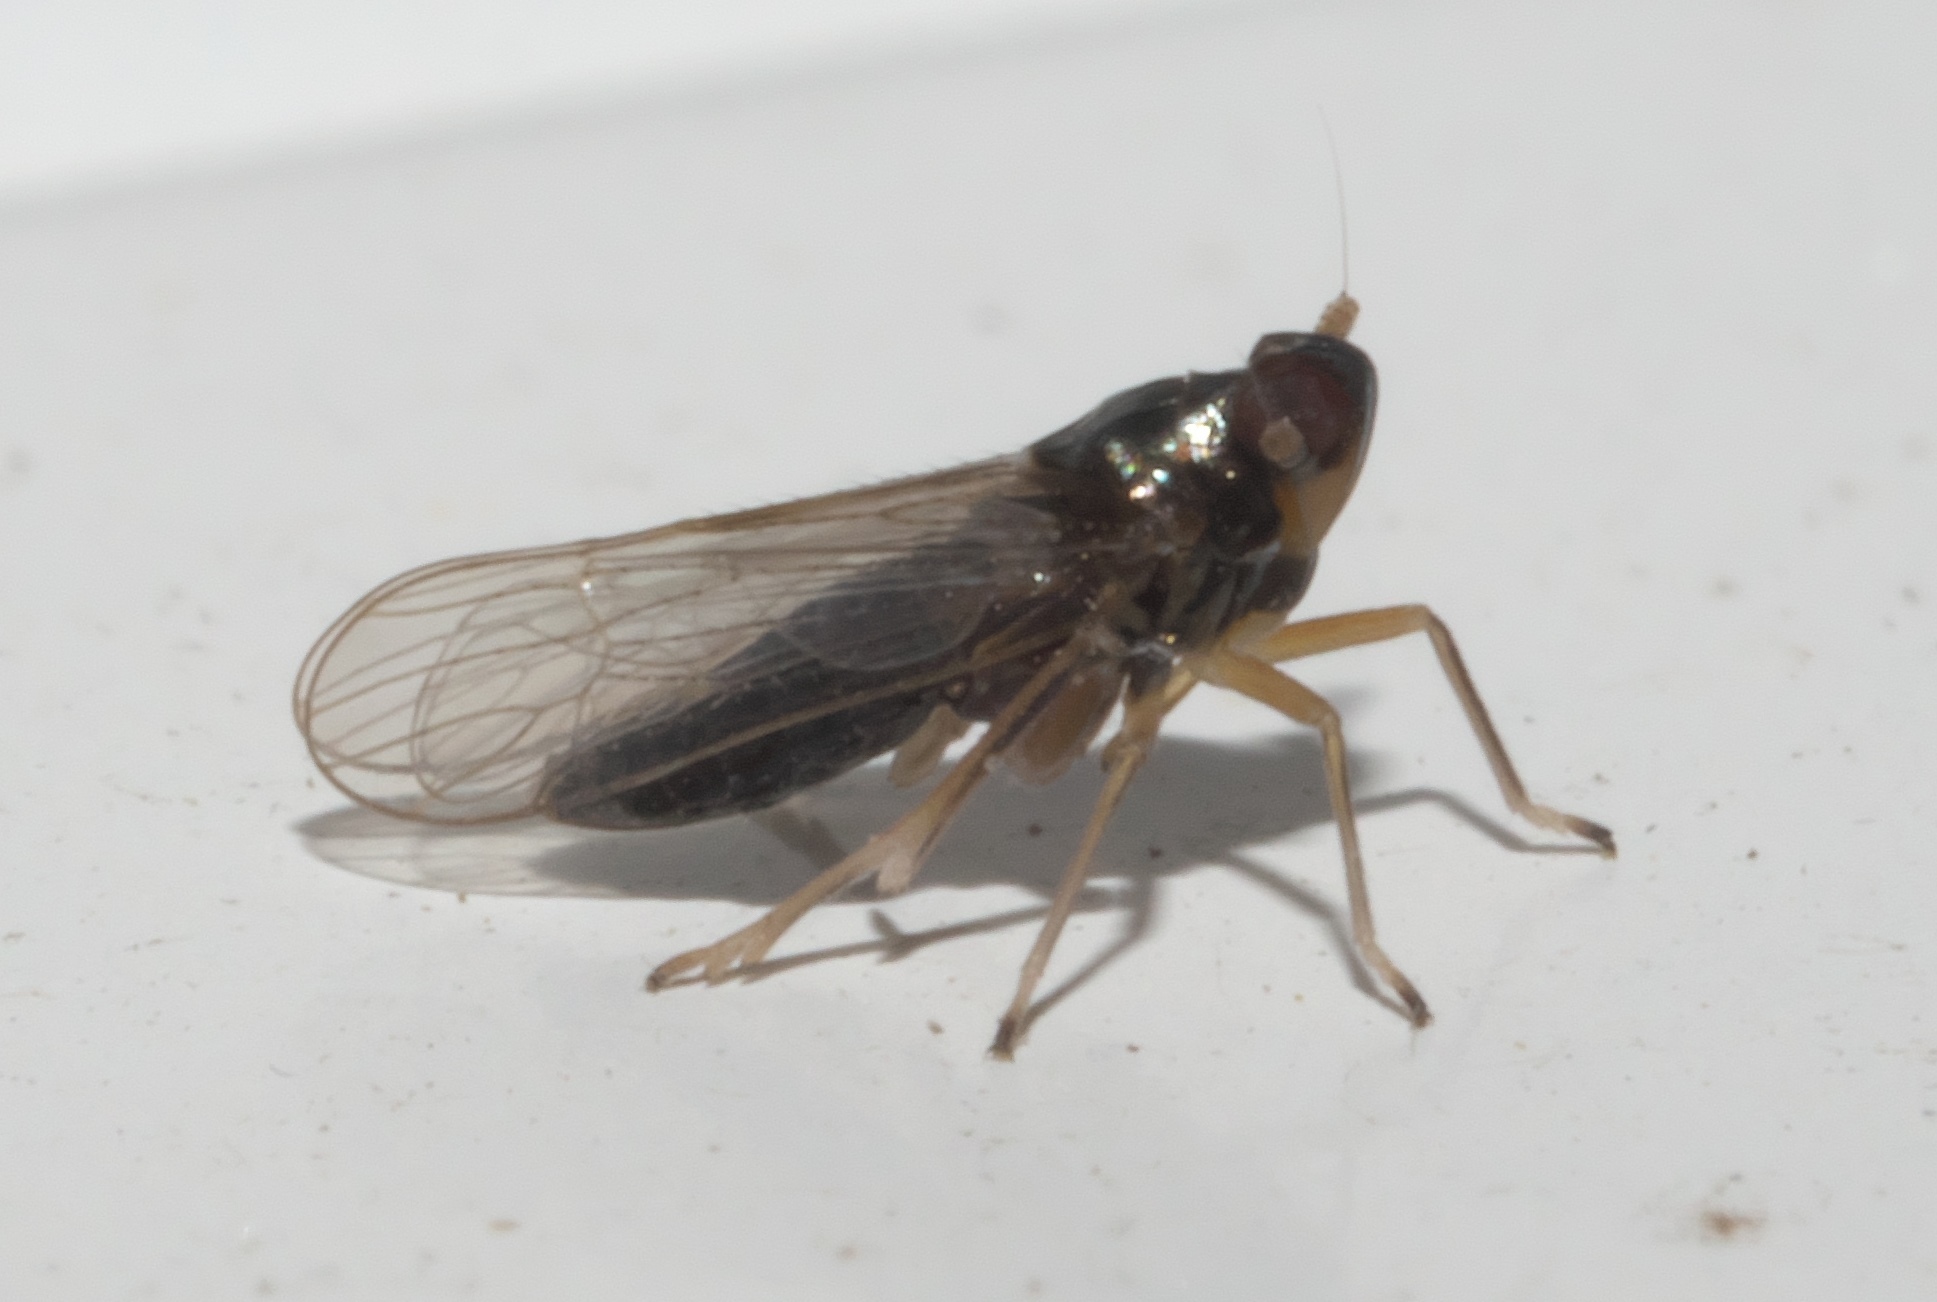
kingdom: Animalia
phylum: Arthropoda
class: Insecta
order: Hemiptera
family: Delphacidae
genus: Pissonotus
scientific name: Pissonotus piceus
